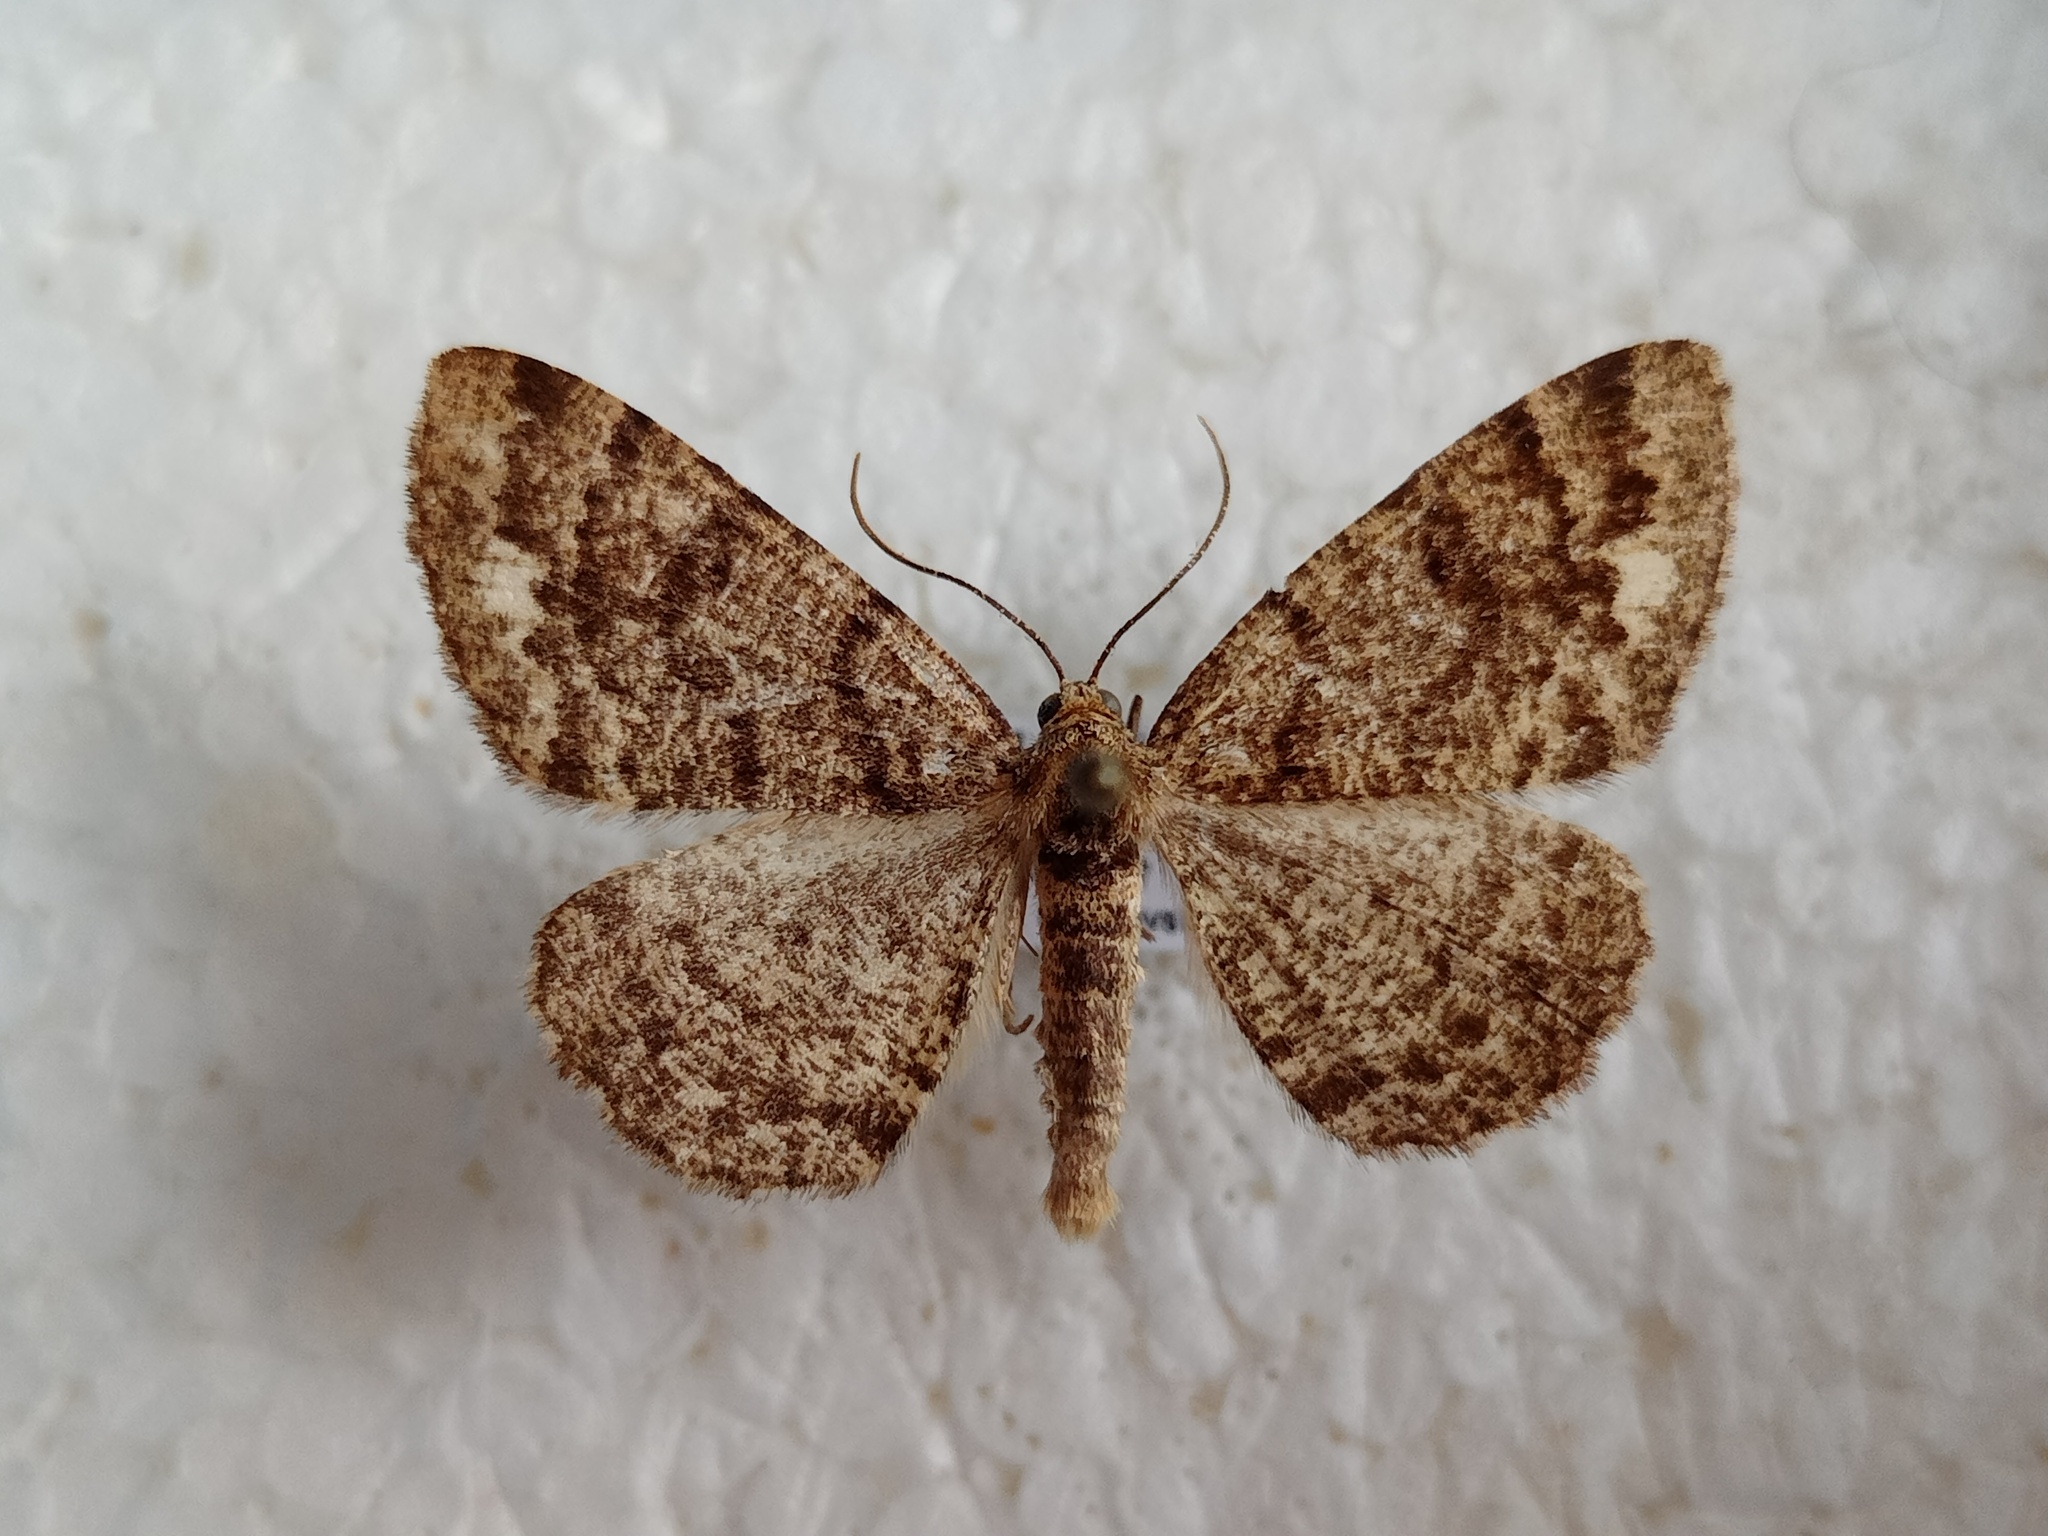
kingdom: Animalia
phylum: Arthropoda
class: Insecta
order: Lepidoptera
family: Geometridae
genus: Parectropis
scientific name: Parectropis similaria
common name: Brindled white-spot
